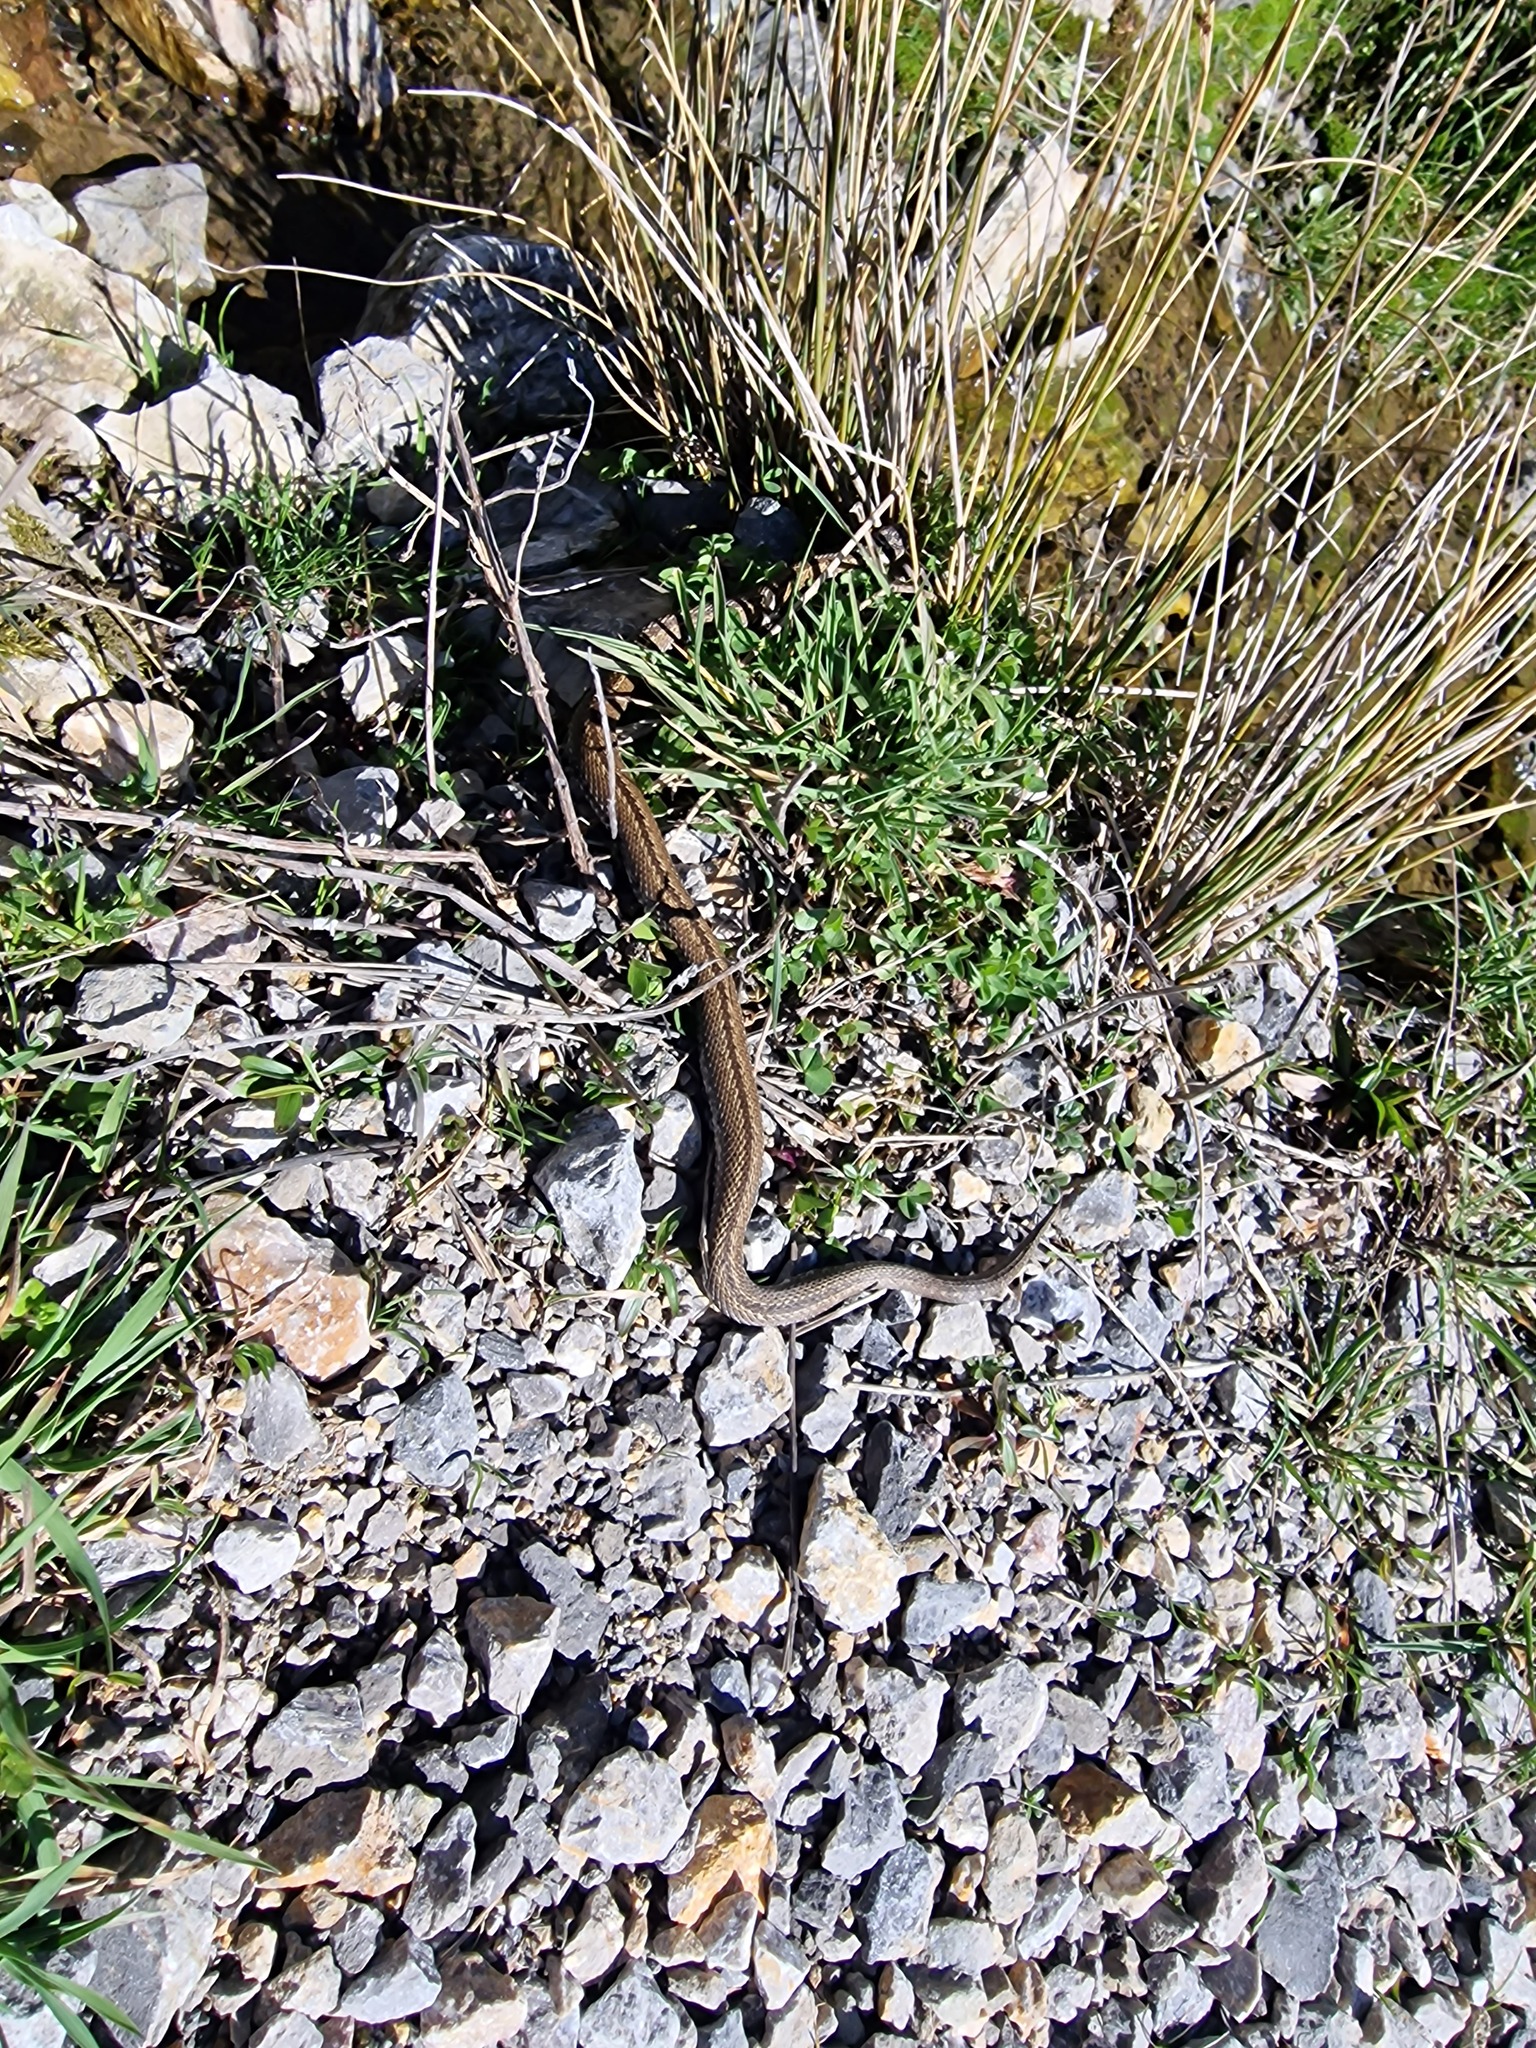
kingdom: Animalia
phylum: Chordata
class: Squamata
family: Viperidae
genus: Vipera
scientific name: Vipera seoanei
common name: Portugese viper
